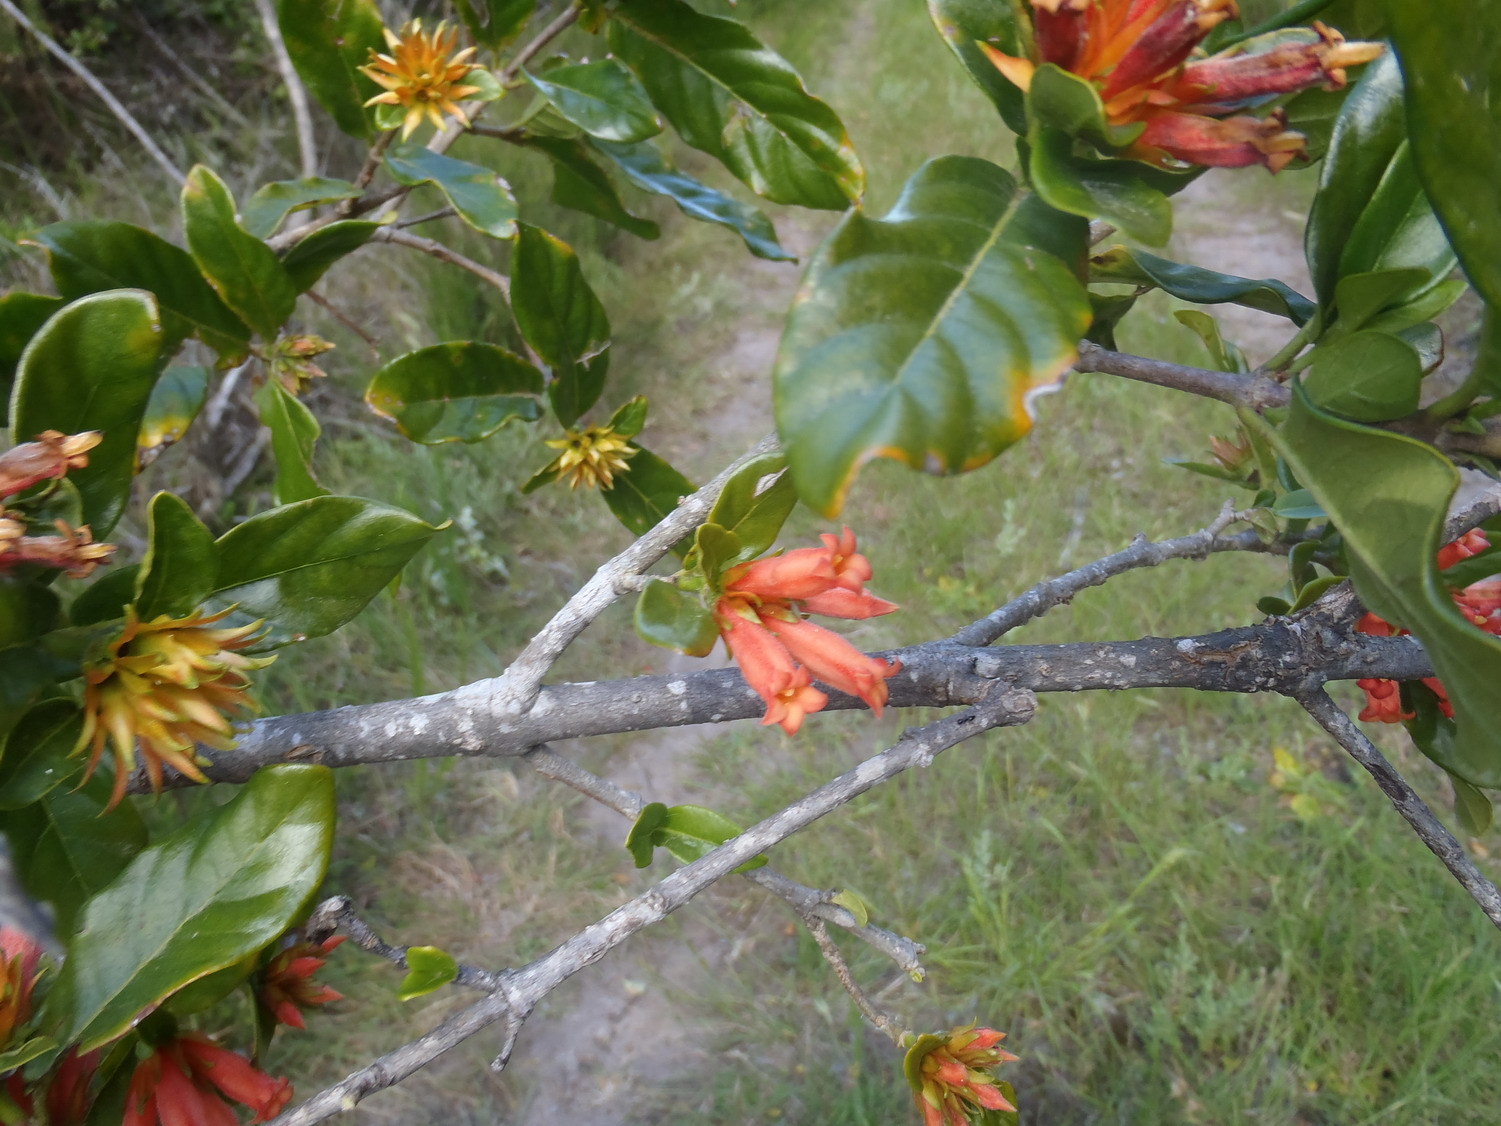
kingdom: Plantae
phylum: Tracheophyta
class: Magnoliopsida
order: Gentianales
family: Rubiaceae
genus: Burchellia
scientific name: Burchellia bubalina
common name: Wild pomegranate
